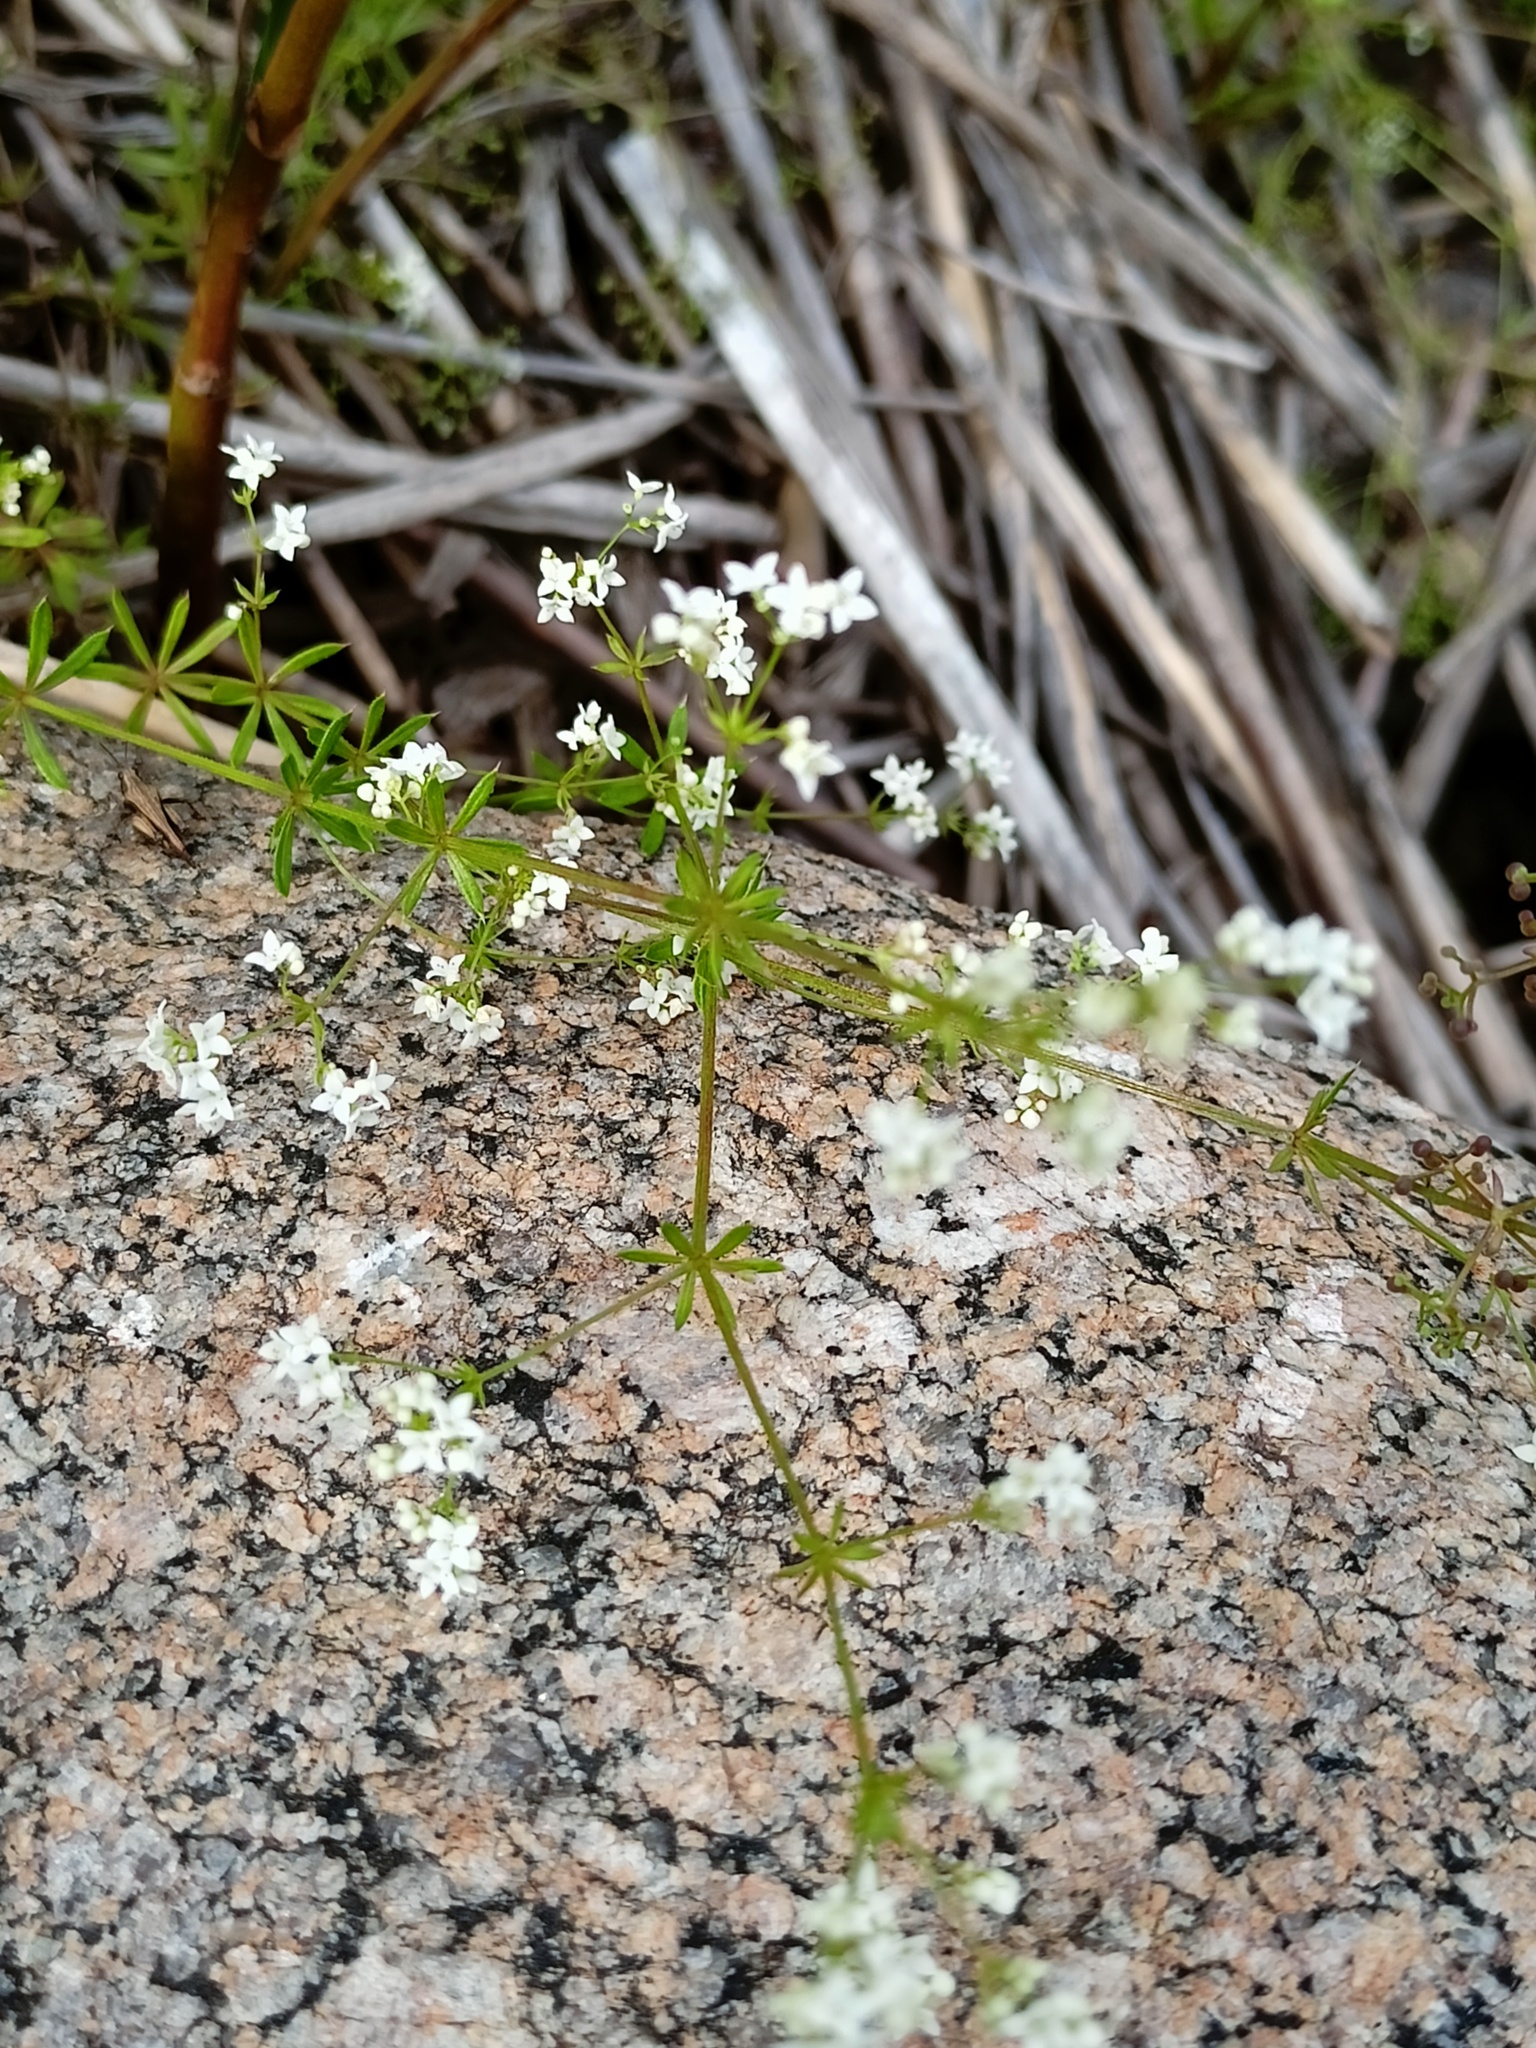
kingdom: Plantae
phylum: Tracheophyta
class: Magnoliopsida
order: Gentianales
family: Rubiaceae
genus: Galium
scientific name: Galium uliginosum
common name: Fen bedstraw
